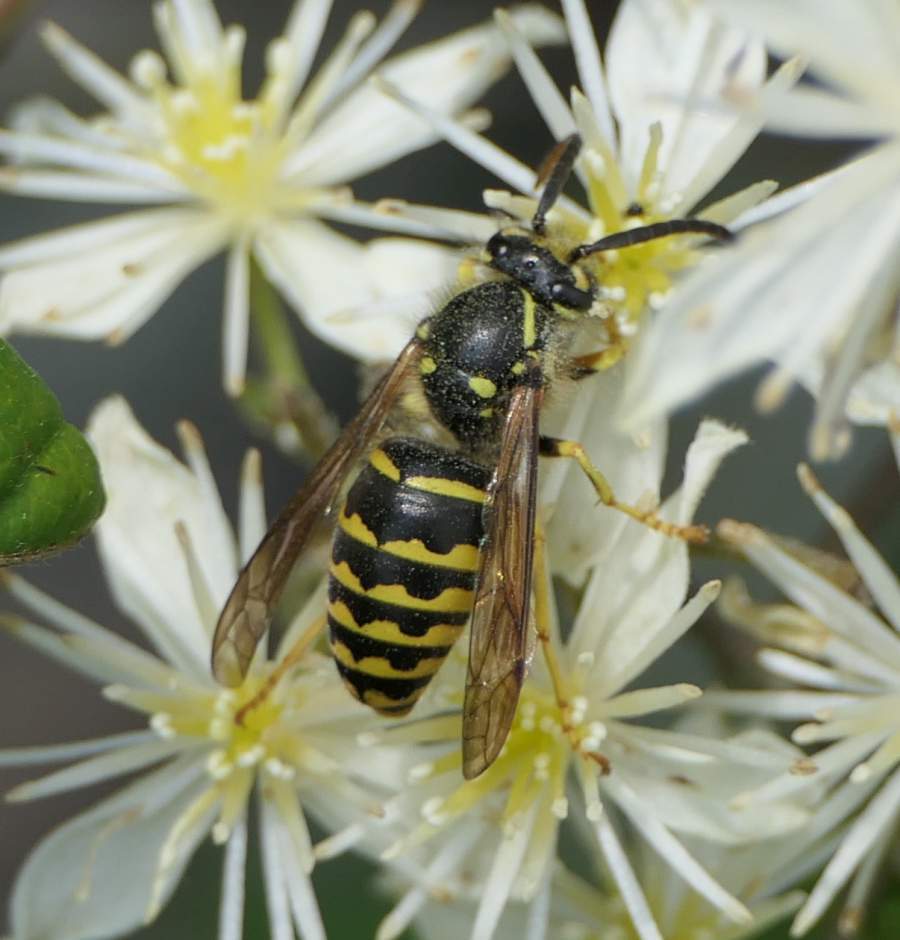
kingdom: Animalia
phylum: Arthropoda
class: Insecta
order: Hymenoptera
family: Vespidae
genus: Dolichovespula
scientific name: Dolichovespula arenaria
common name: Aerial yellowjacket
